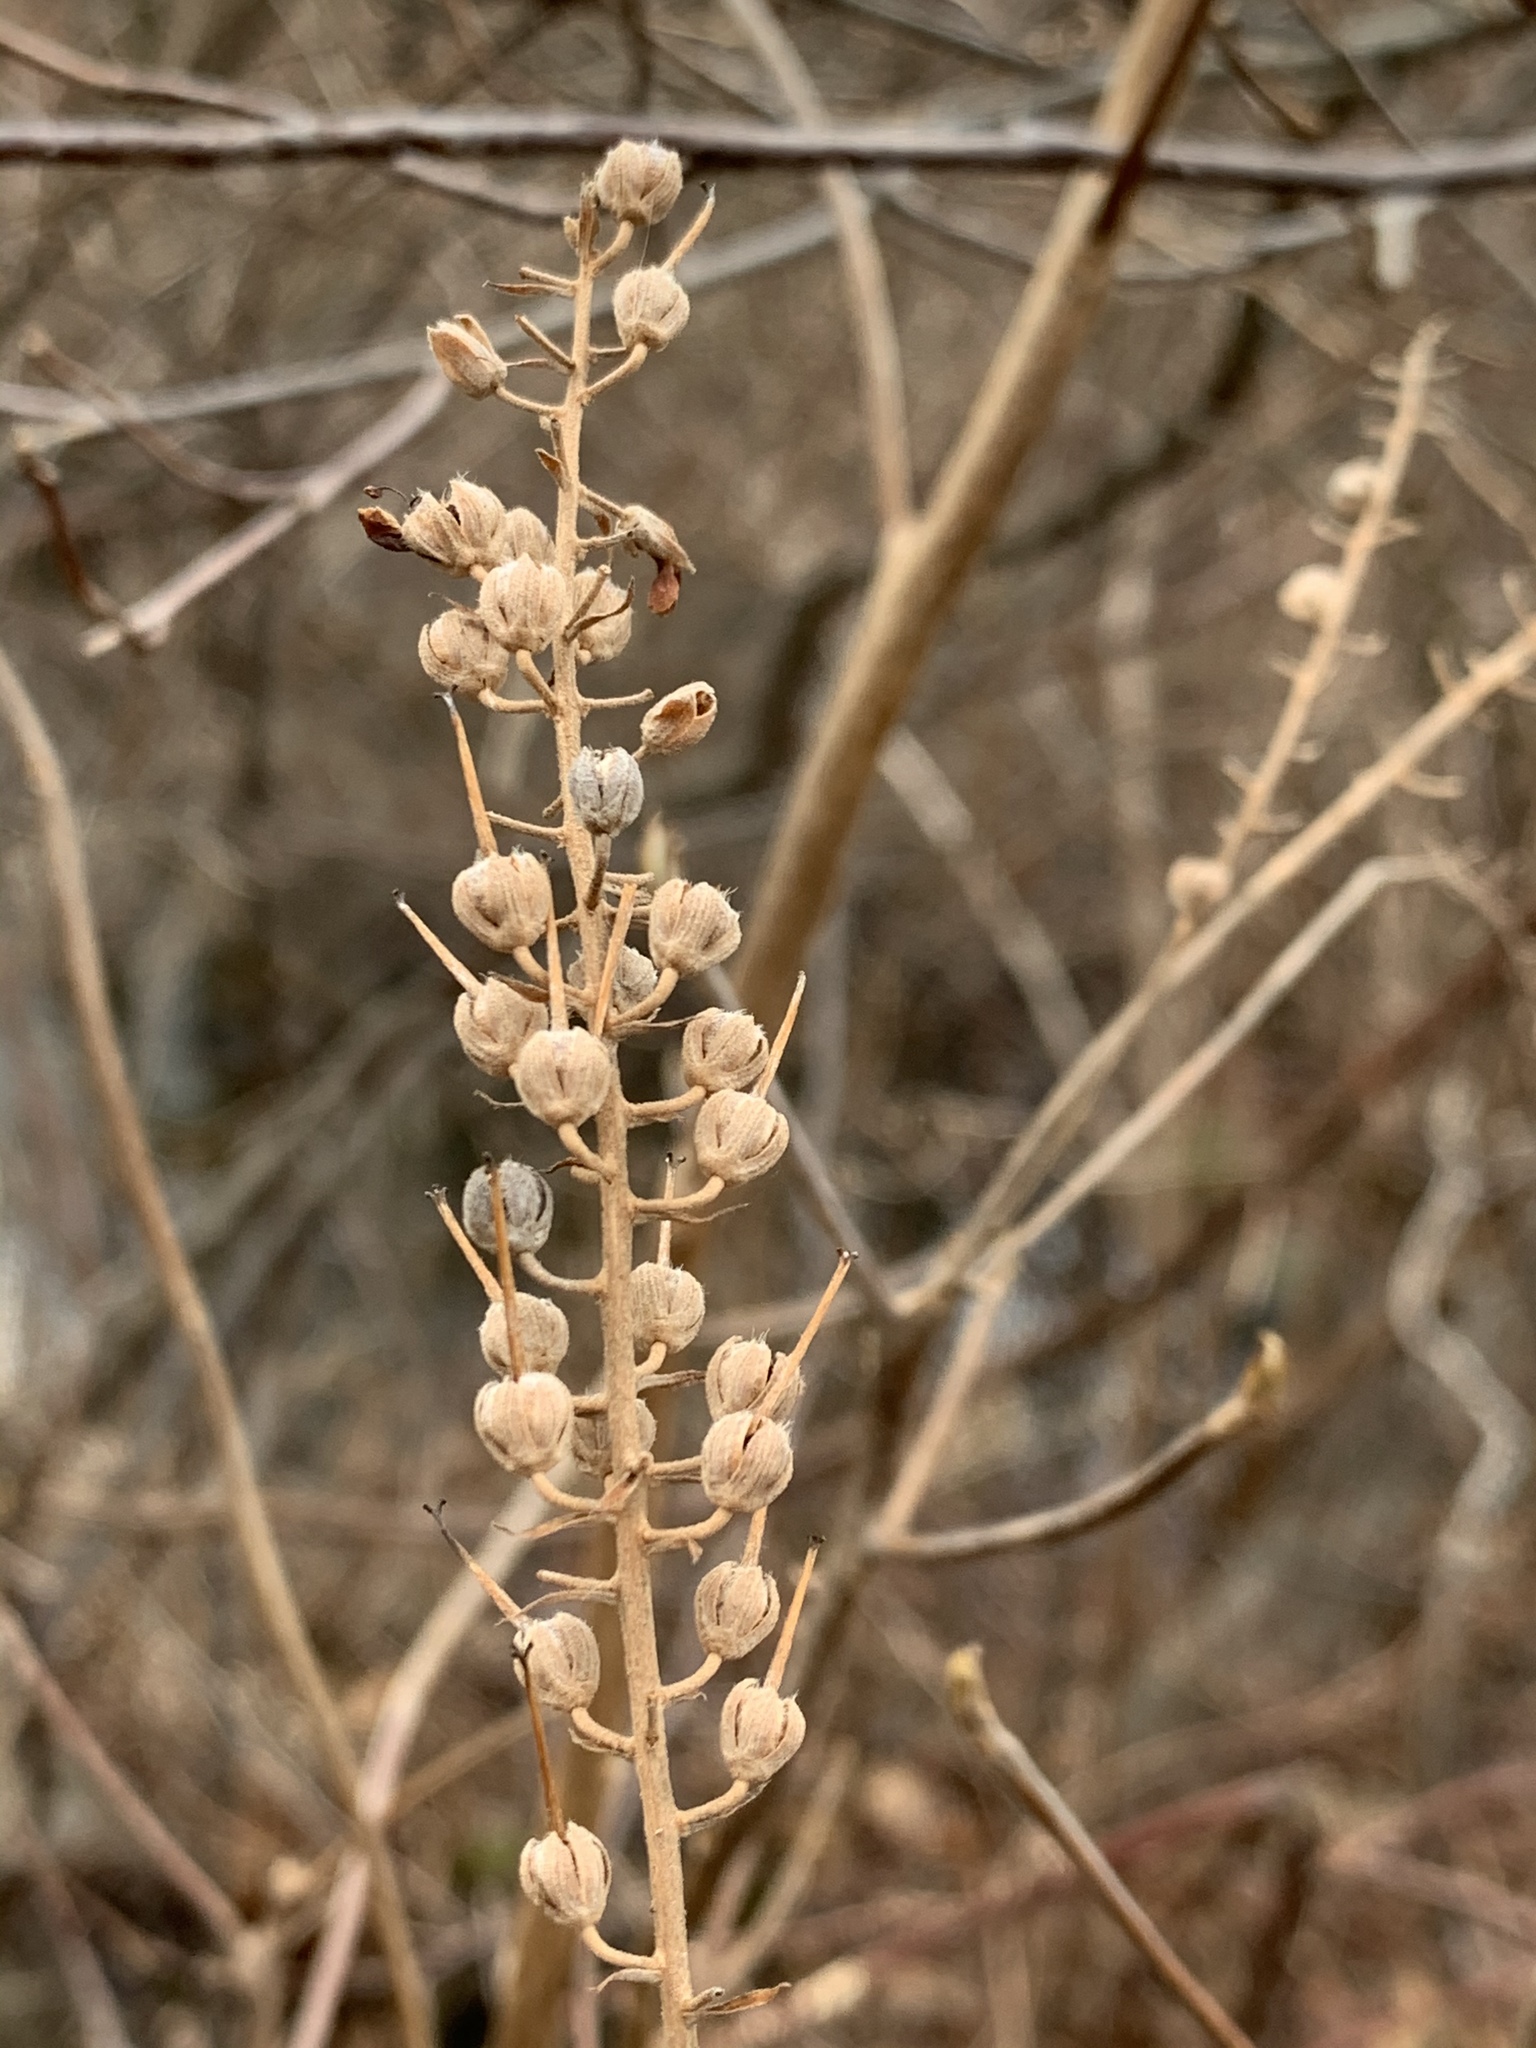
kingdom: Plantae
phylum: Tracheophyta
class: Magnoliopsida
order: Ericales
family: Clethraceae
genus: Clethra
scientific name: Clethra alnifolia
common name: Sweet pepperbush
